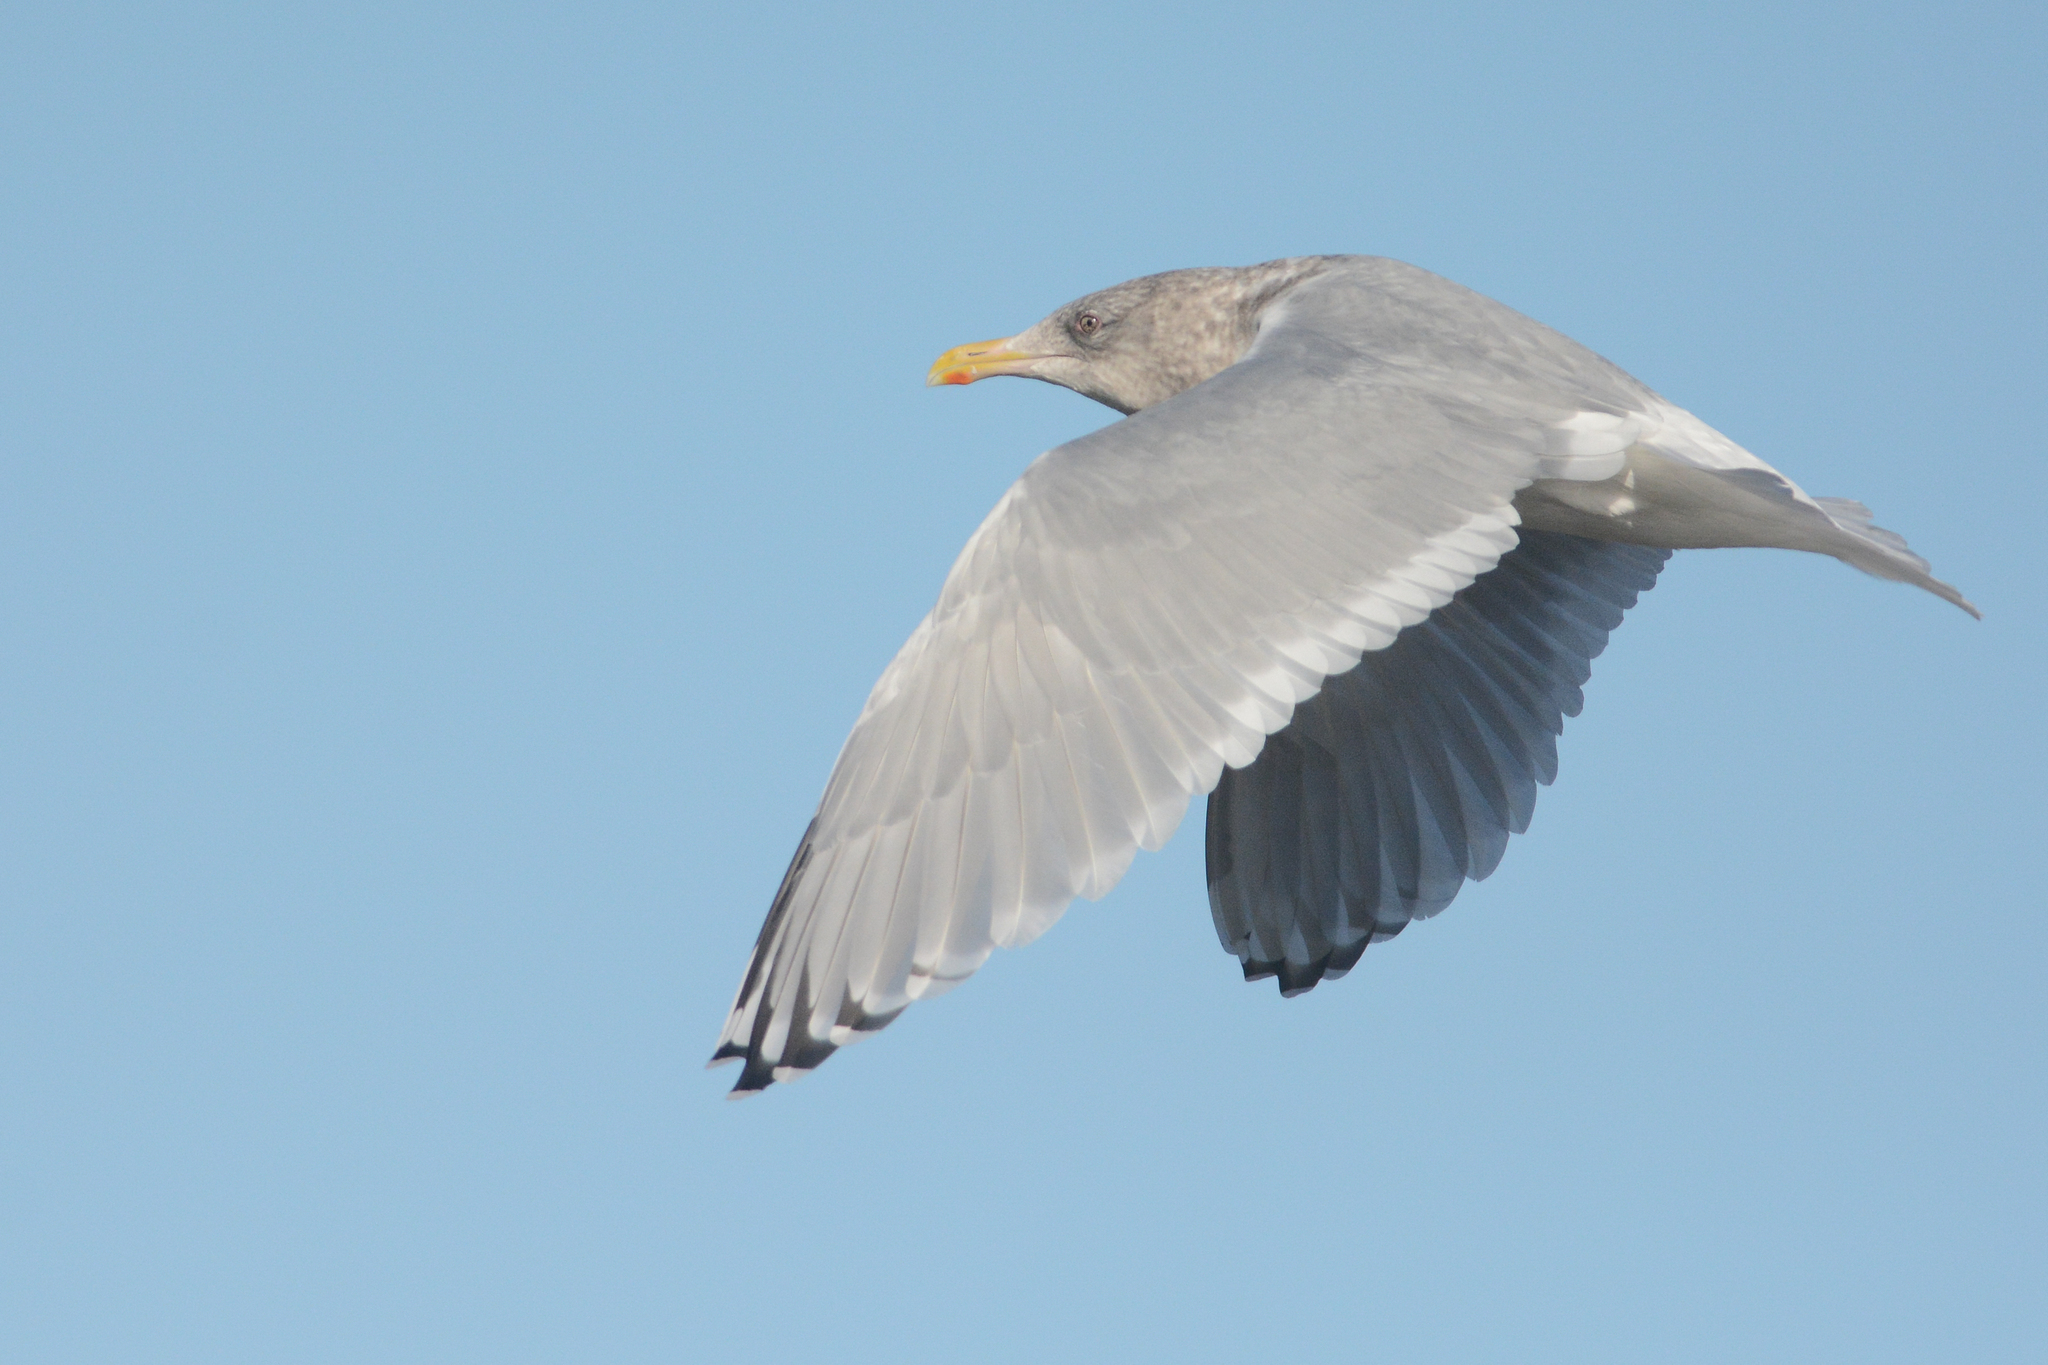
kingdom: Animalia
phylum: Chordata
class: Aves
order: Charadriiformes
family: Laridae
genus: Larus
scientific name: Larus glaucoides
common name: Iceland gull
